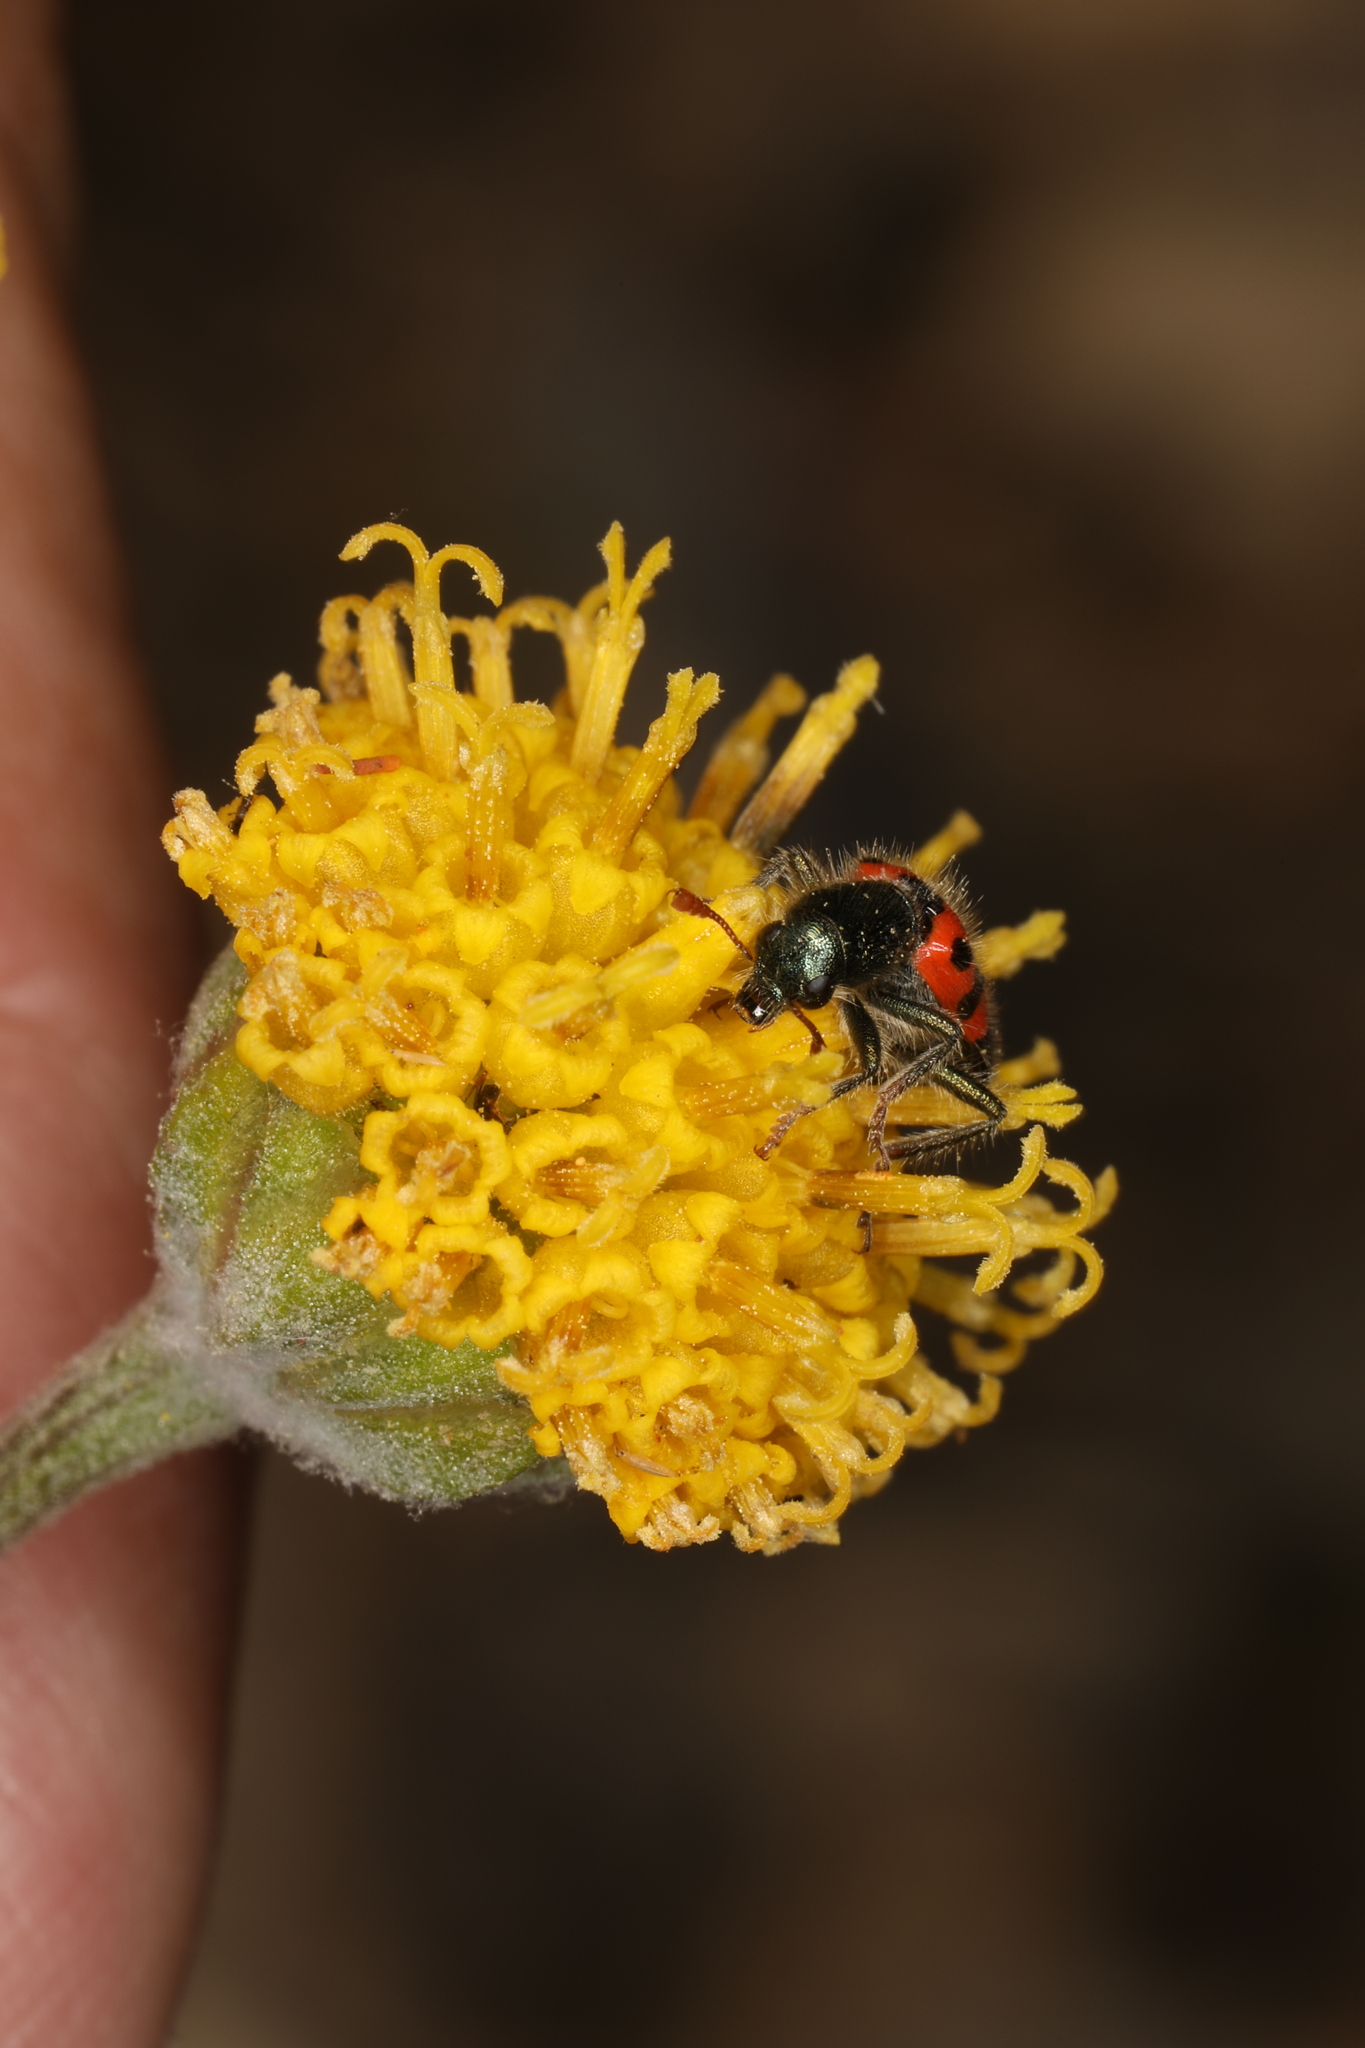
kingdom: Plantae
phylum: Tracheophyta
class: Magnoliopsida
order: Asterales
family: Asteraceae
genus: Hymenopappus
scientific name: Hymenopappus filifolius
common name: Columbia cutleaf
